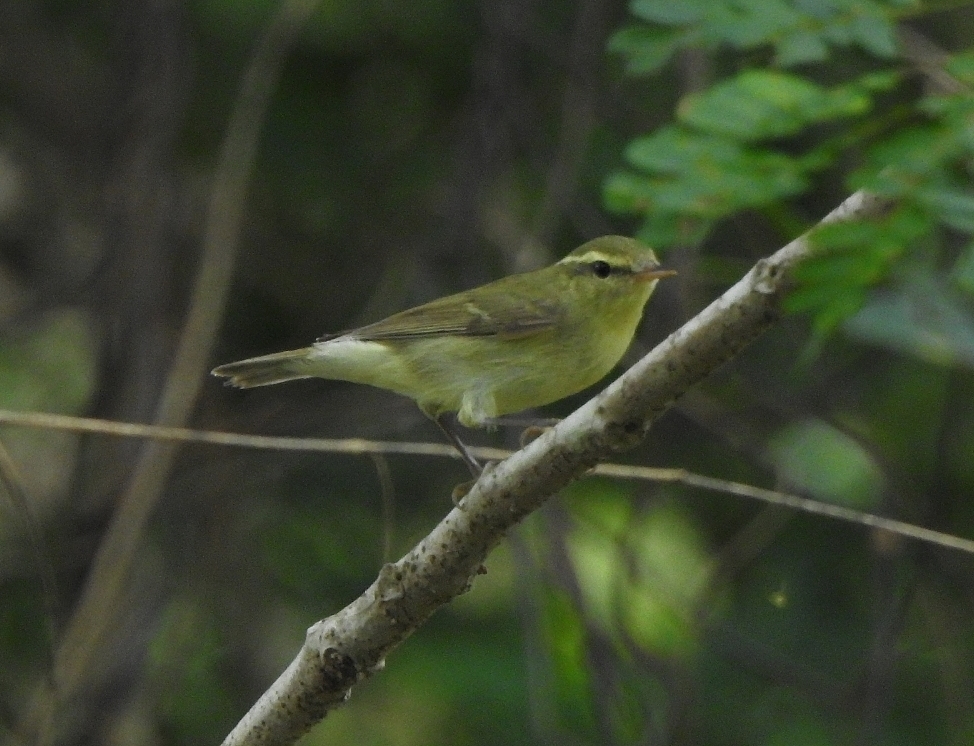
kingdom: Animalia
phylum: Chordata
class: Aves
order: Passeriformes
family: Phylloscopidae
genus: Phylloscopus
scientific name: Phylloscopus trochiloides
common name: Greenish warbler
